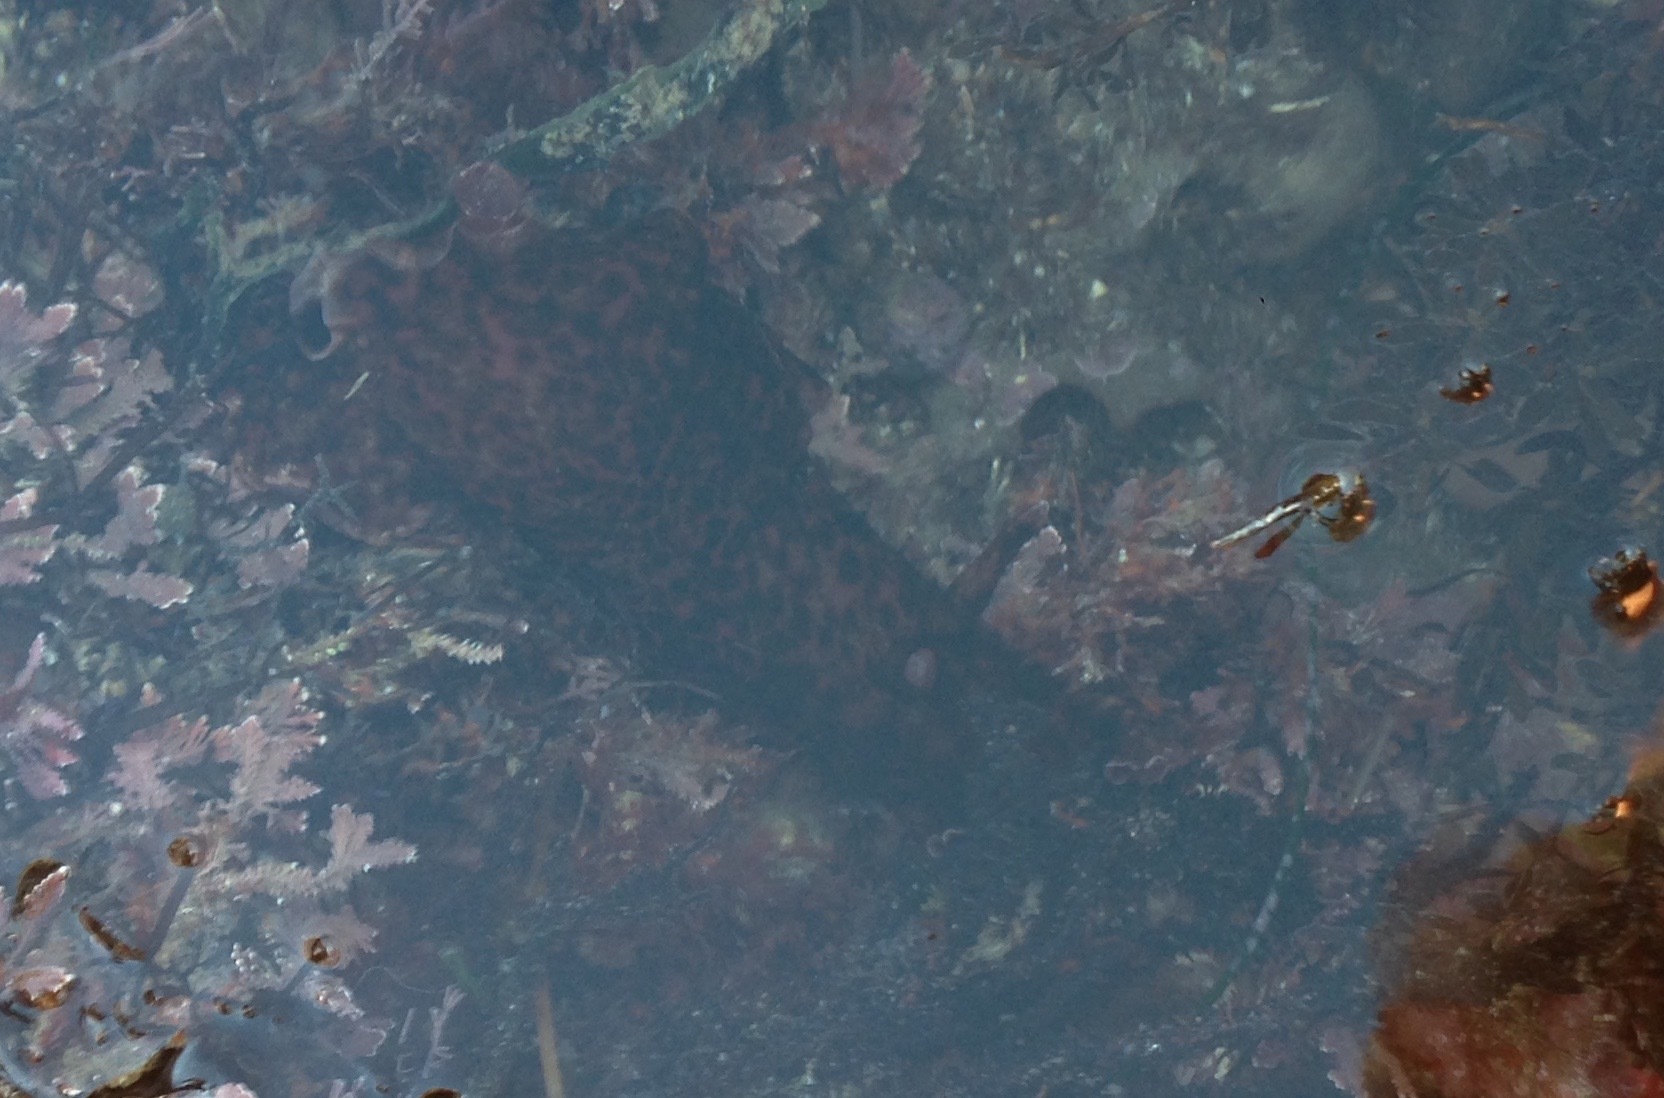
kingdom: Animalia
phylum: Mollusca
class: Gastropoda
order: Aplysiida
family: Aplysiidae
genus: Aplysia
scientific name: Aplysia californica
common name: California seahare
